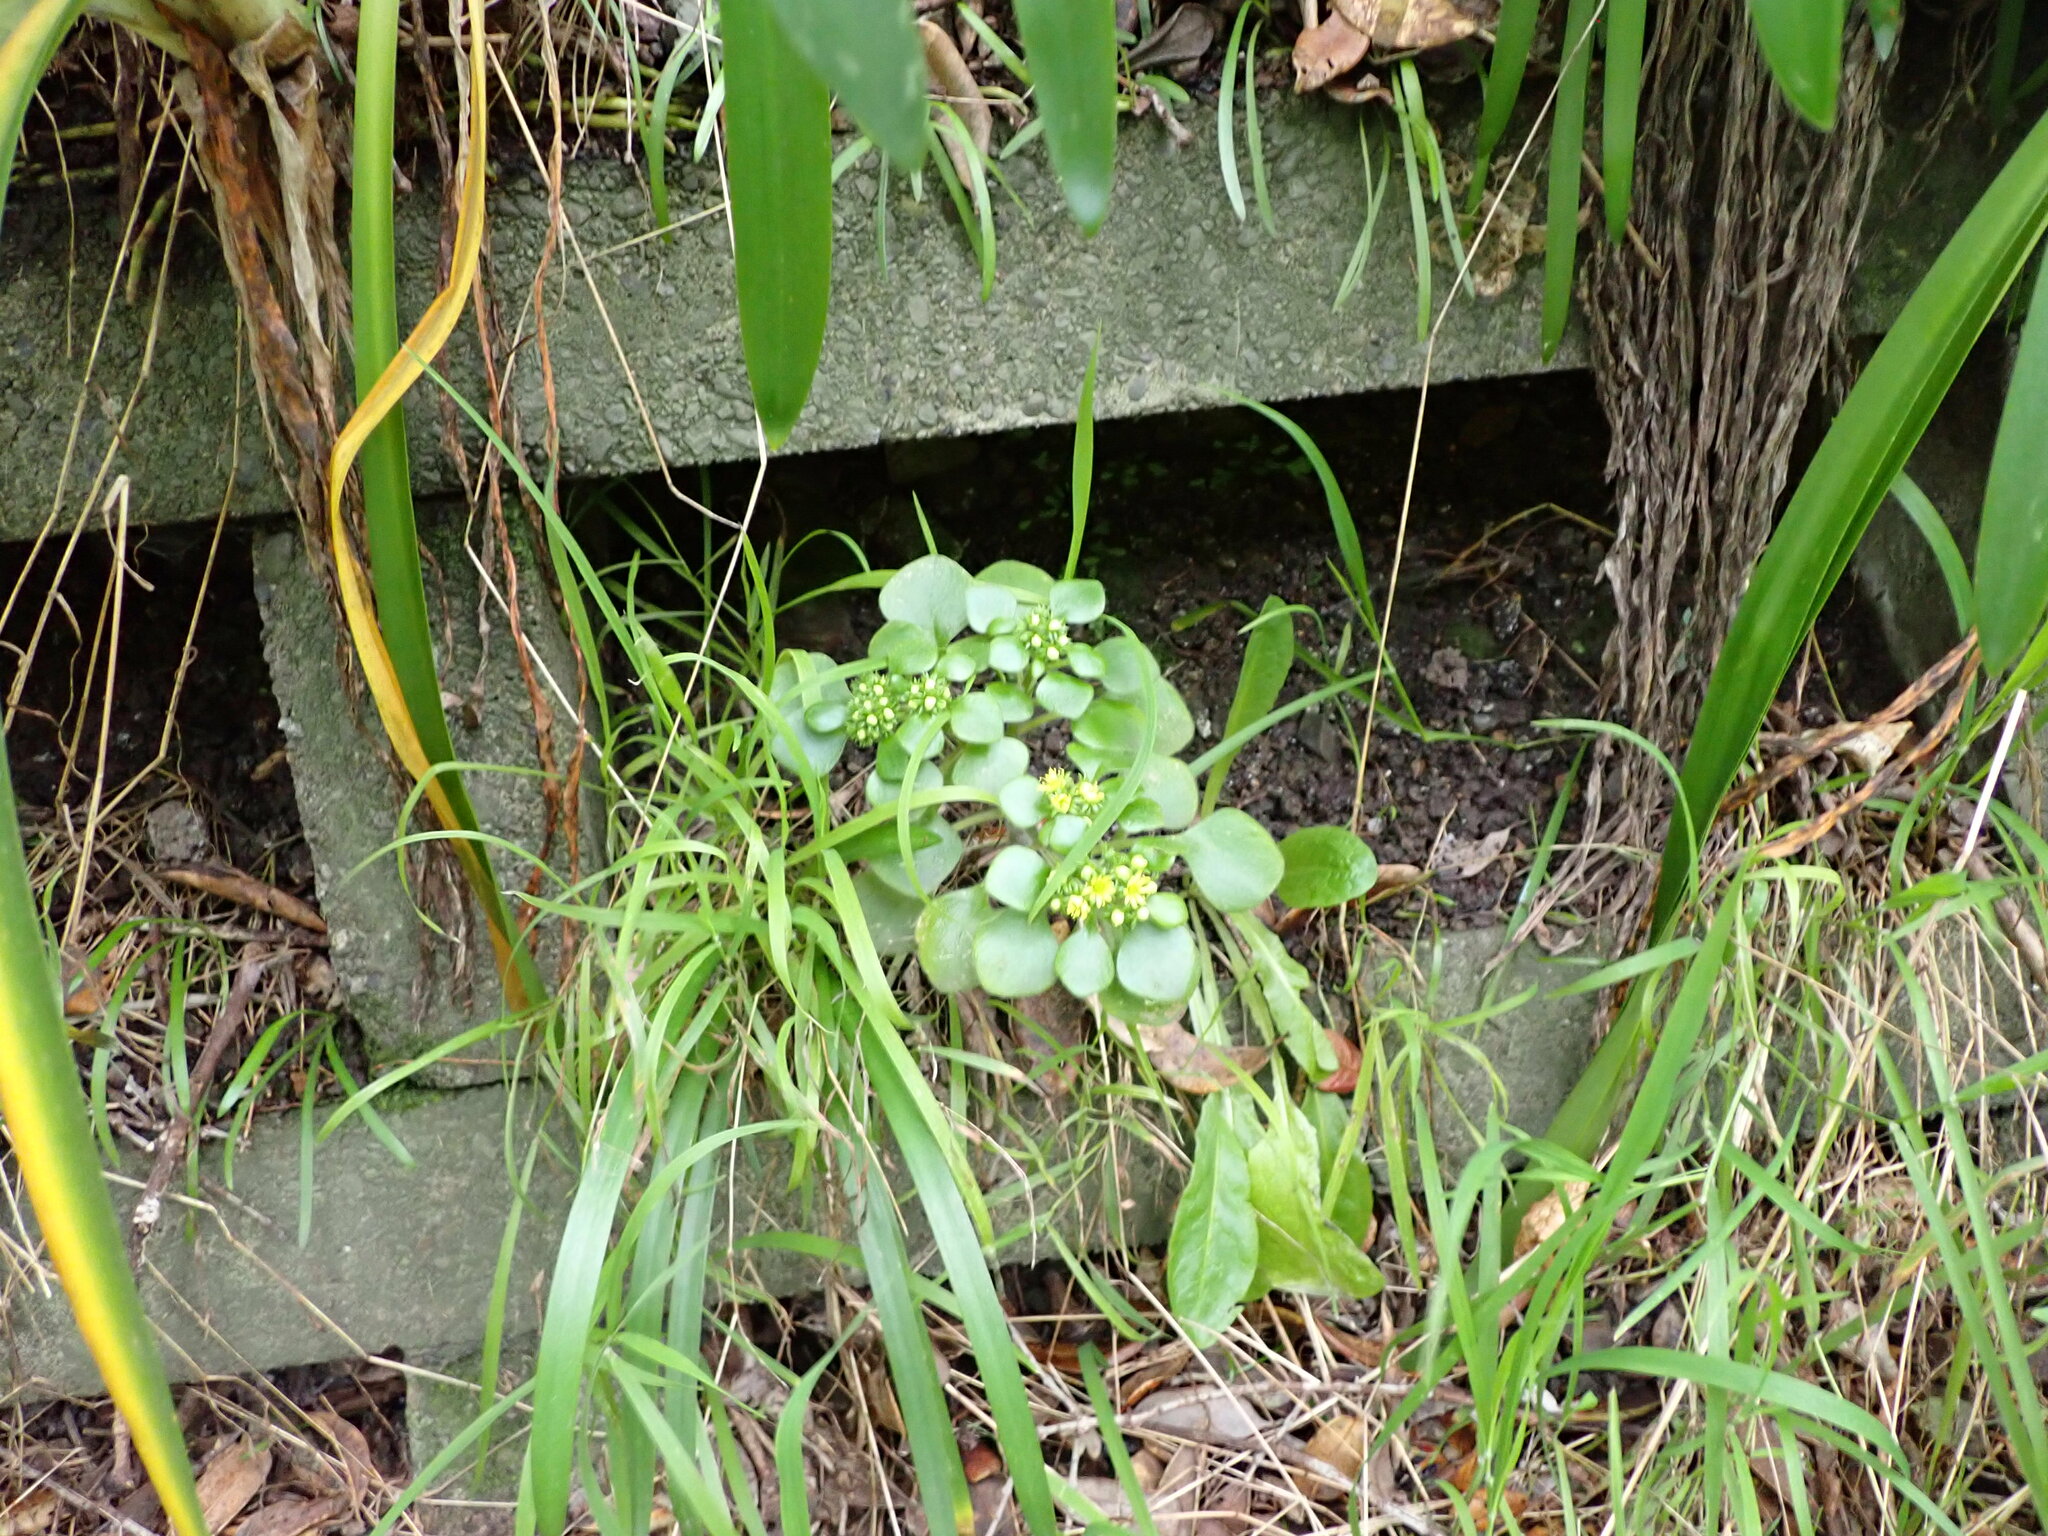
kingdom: Plantae
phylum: Tracheophyta
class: Magnoliopsida
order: Saxifragales
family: Crassulaceae
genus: Aichryson
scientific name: Aichryson laxum
